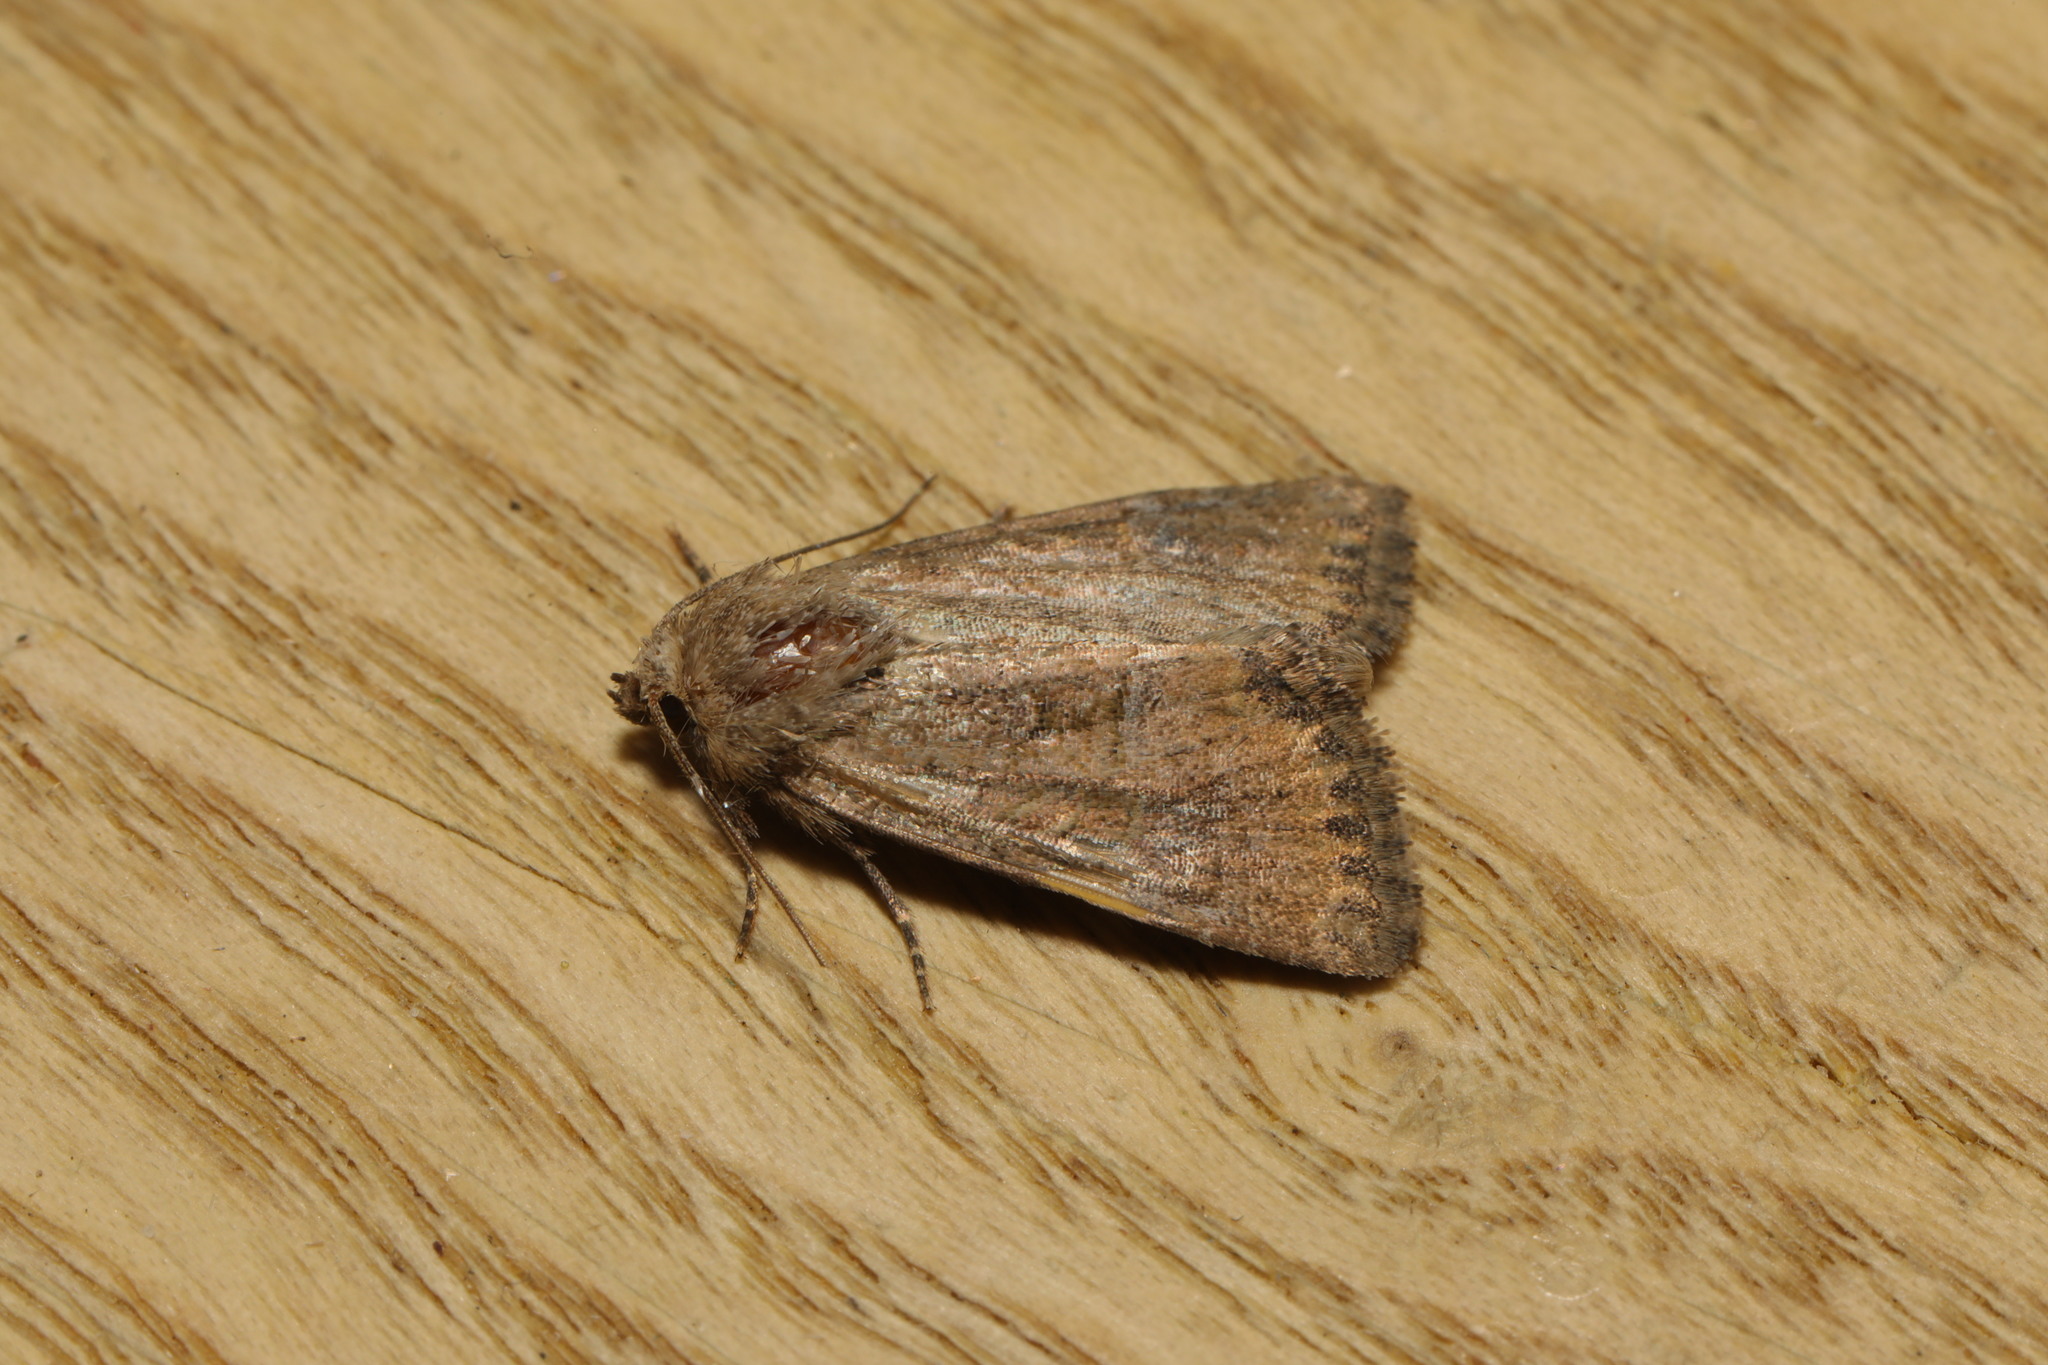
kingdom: Animalia
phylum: Arthropoda
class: Insecta
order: Lepidoptera
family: Noctuidae
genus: Mesoligia
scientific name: Mesoligia furuncula
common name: Cloaked minor
